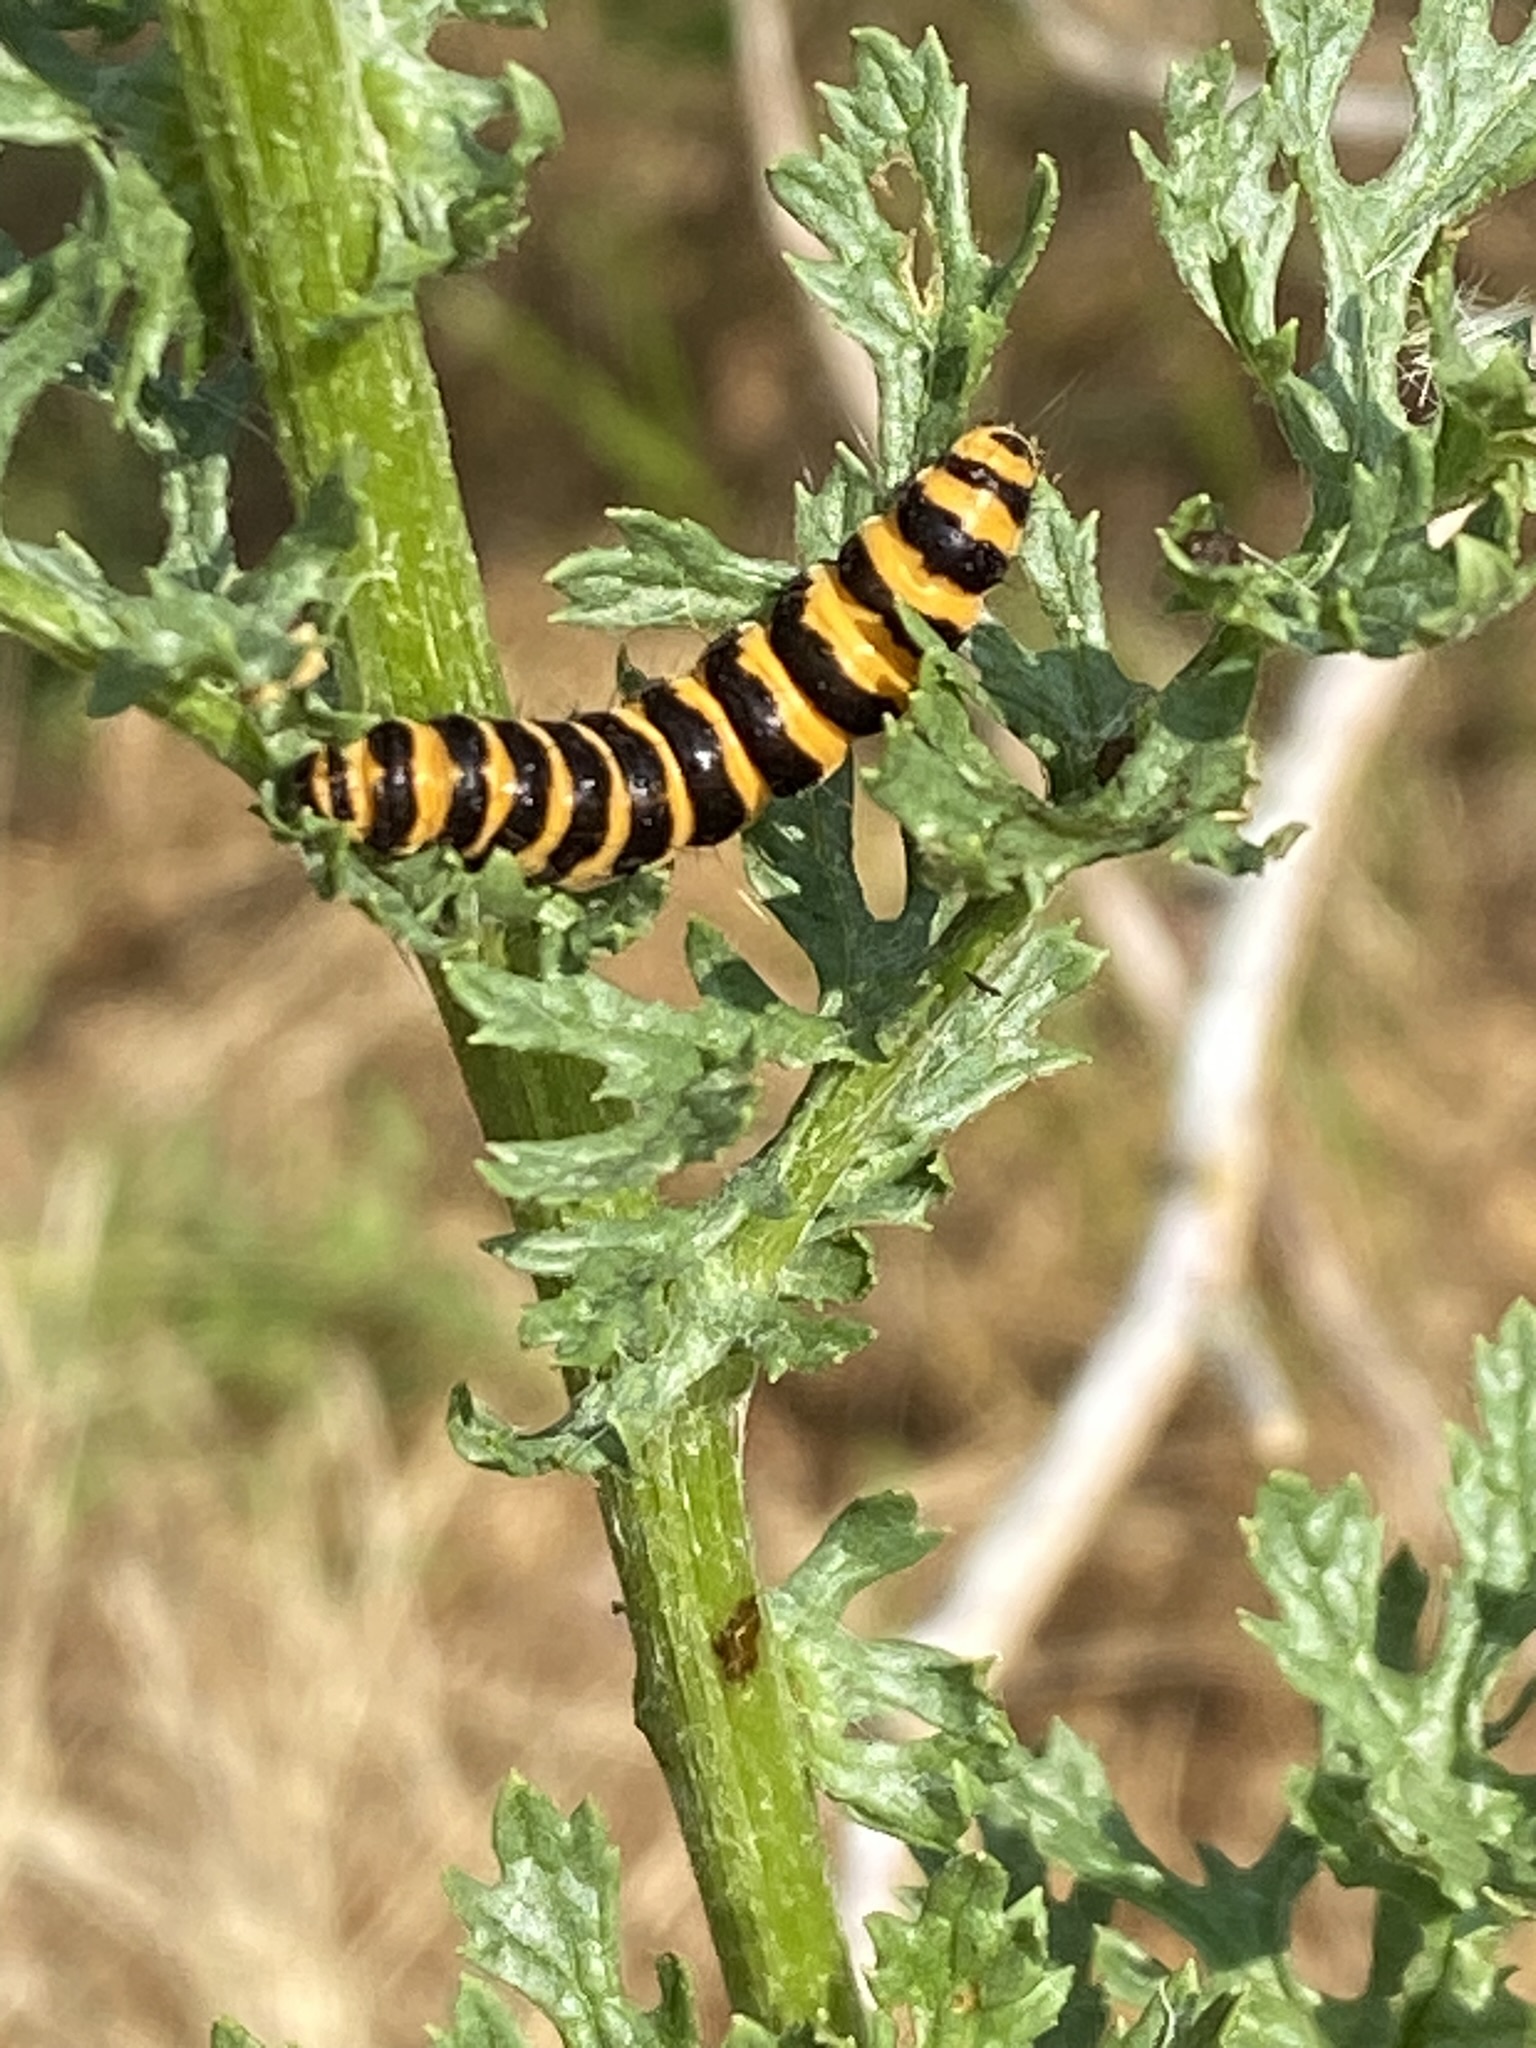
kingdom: Animalia
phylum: Arthropoda
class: Insecta
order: Lepidoptera
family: Erebidae
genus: Tyria
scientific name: Tyria jacobaeae
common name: Cinnabar
